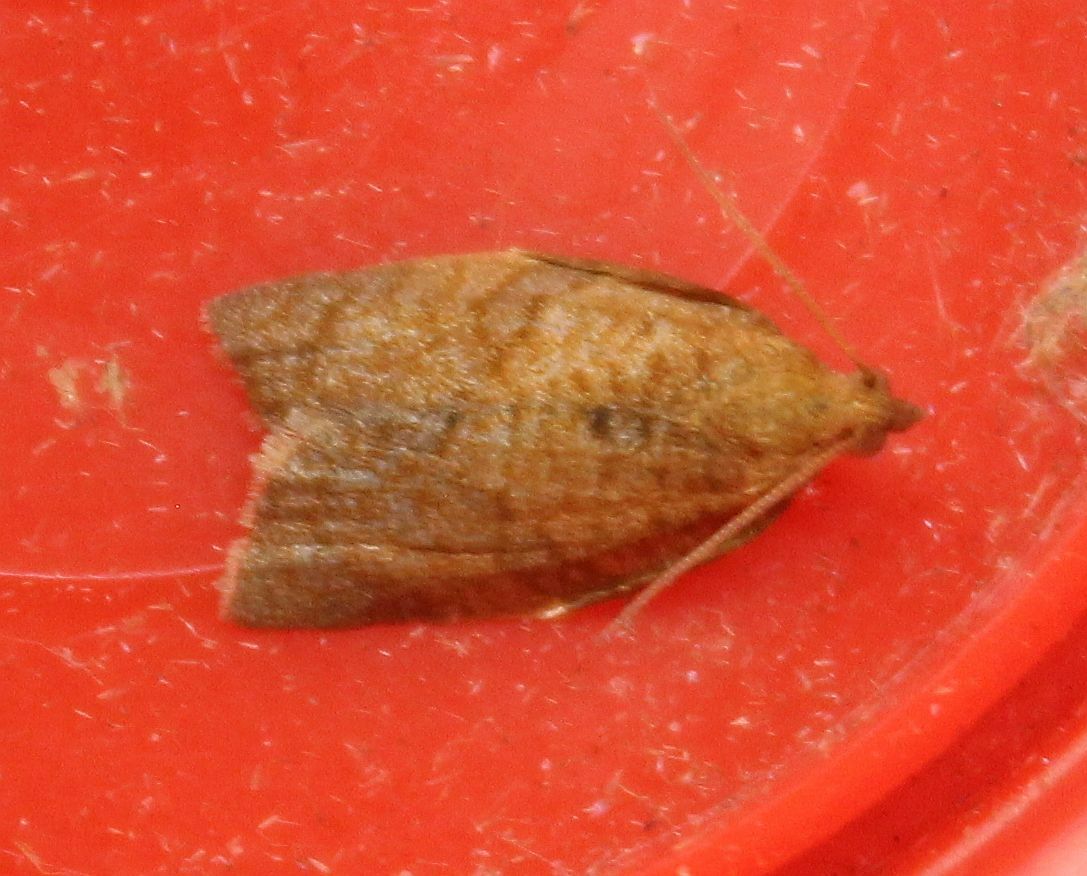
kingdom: Animalia
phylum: Arthropoda
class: Insecta
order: Lepidoptera
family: Tortricidae
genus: Clepsis
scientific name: Clepsis consimilana
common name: Privet tortrix
